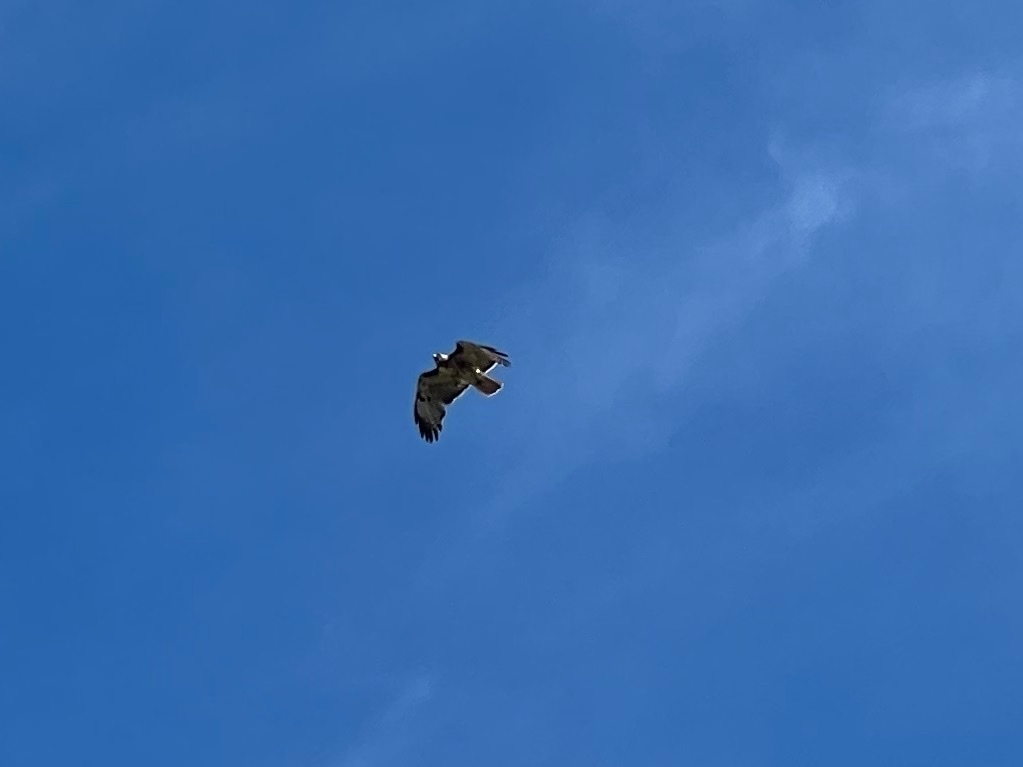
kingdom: Animalia
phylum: Chordata
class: Aves
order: Accipitriformes
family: Accipitridae
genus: Buteo
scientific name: Buteo jamaicensis
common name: Red-tailed hawk
